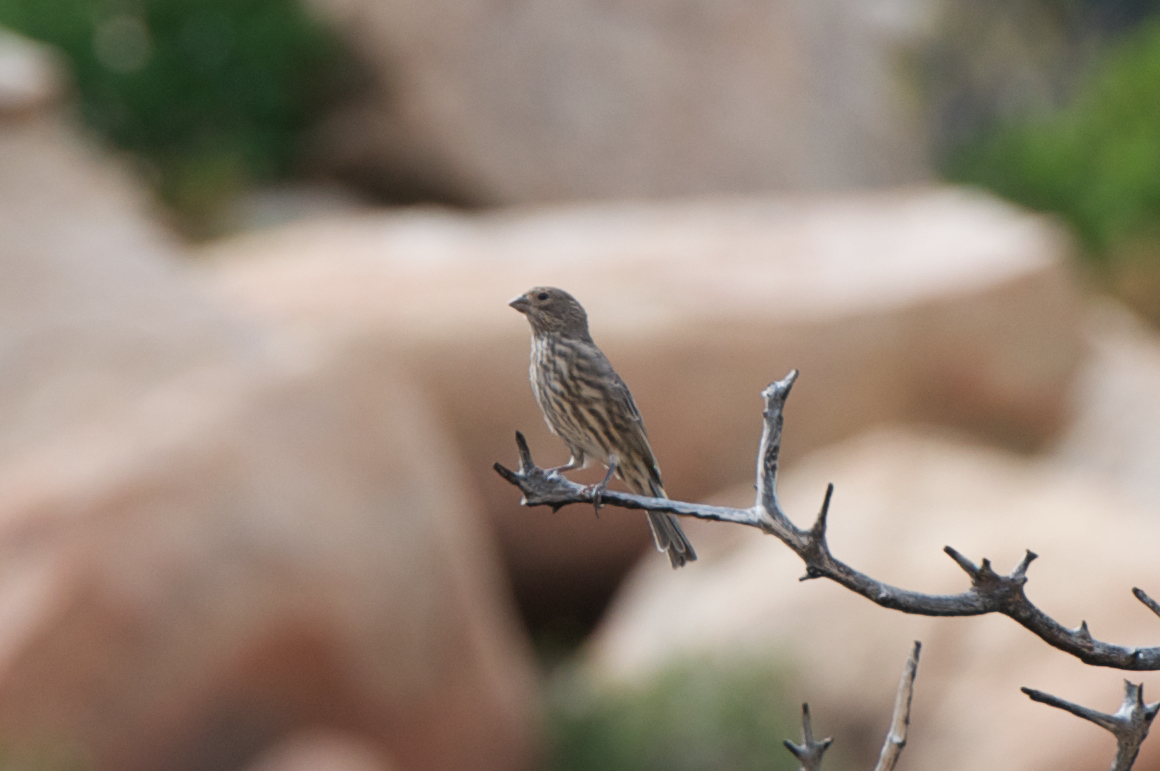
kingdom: Animalia
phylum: Chordata
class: Aves
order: Passeriformes
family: Fringillidae
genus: Haemorhous
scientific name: Haemorhous mexicanus
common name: House finch
